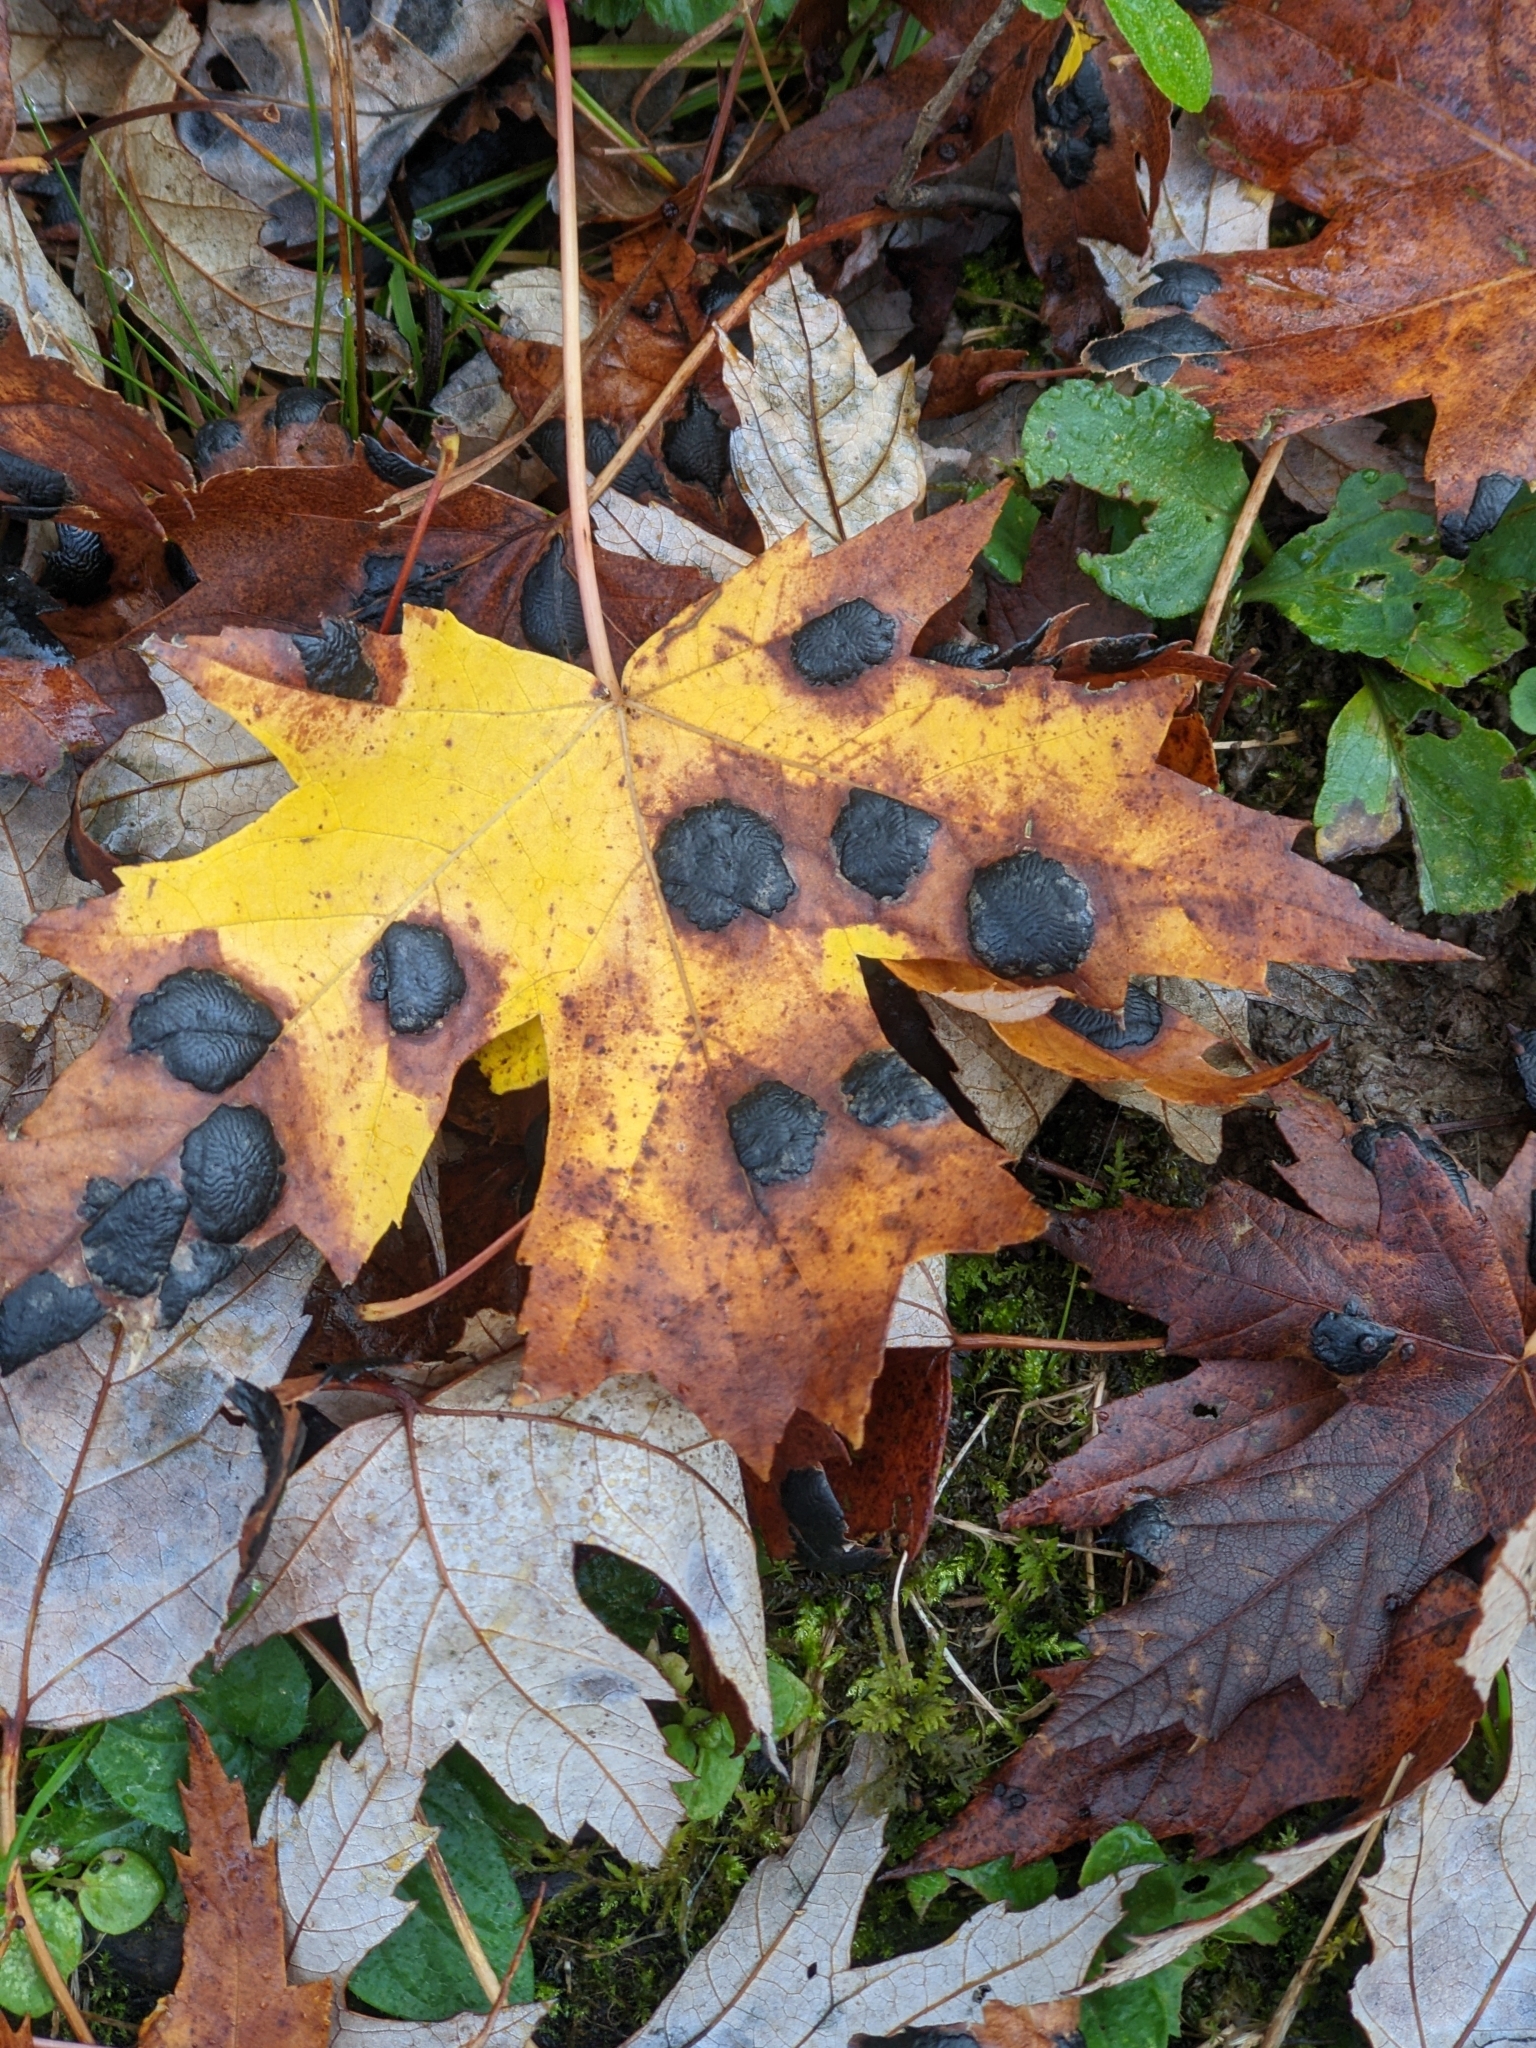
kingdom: Fungi
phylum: Ascomycota
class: Leotiomycetes
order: Rhytismatales
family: Rhytismataceae
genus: Rhytisma
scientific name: Rhytisma americanum
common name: American tar spot
